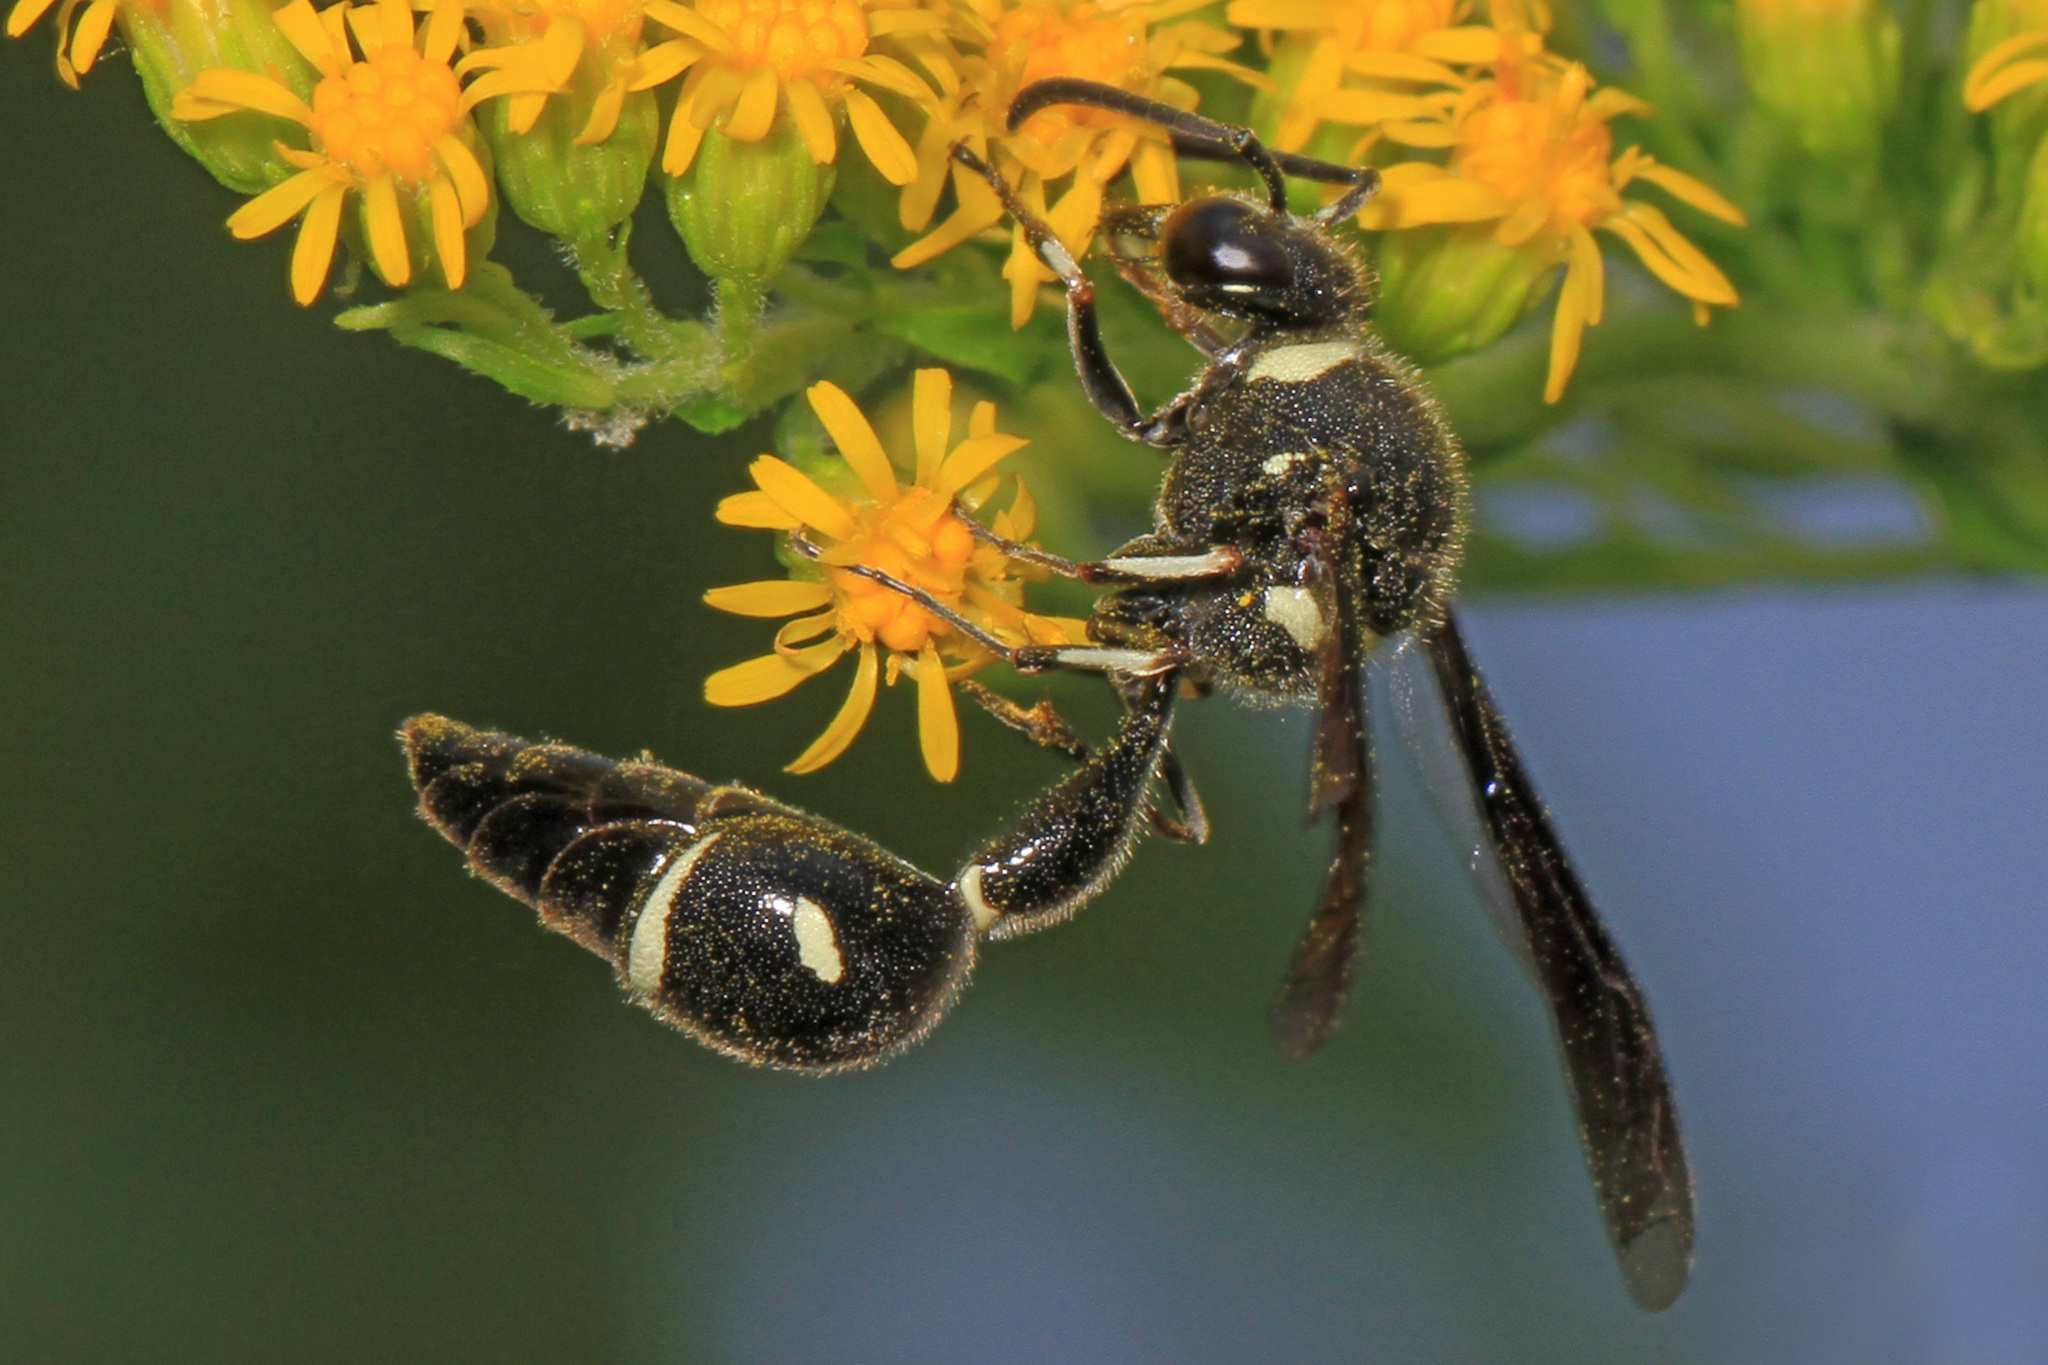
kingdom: Animalia
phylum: Arthropoda
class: Insecta
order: Hymenoptera
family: Vespidae
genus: Eumenes
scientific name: Eumenes fraternus
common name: Fraternal potter wasp
